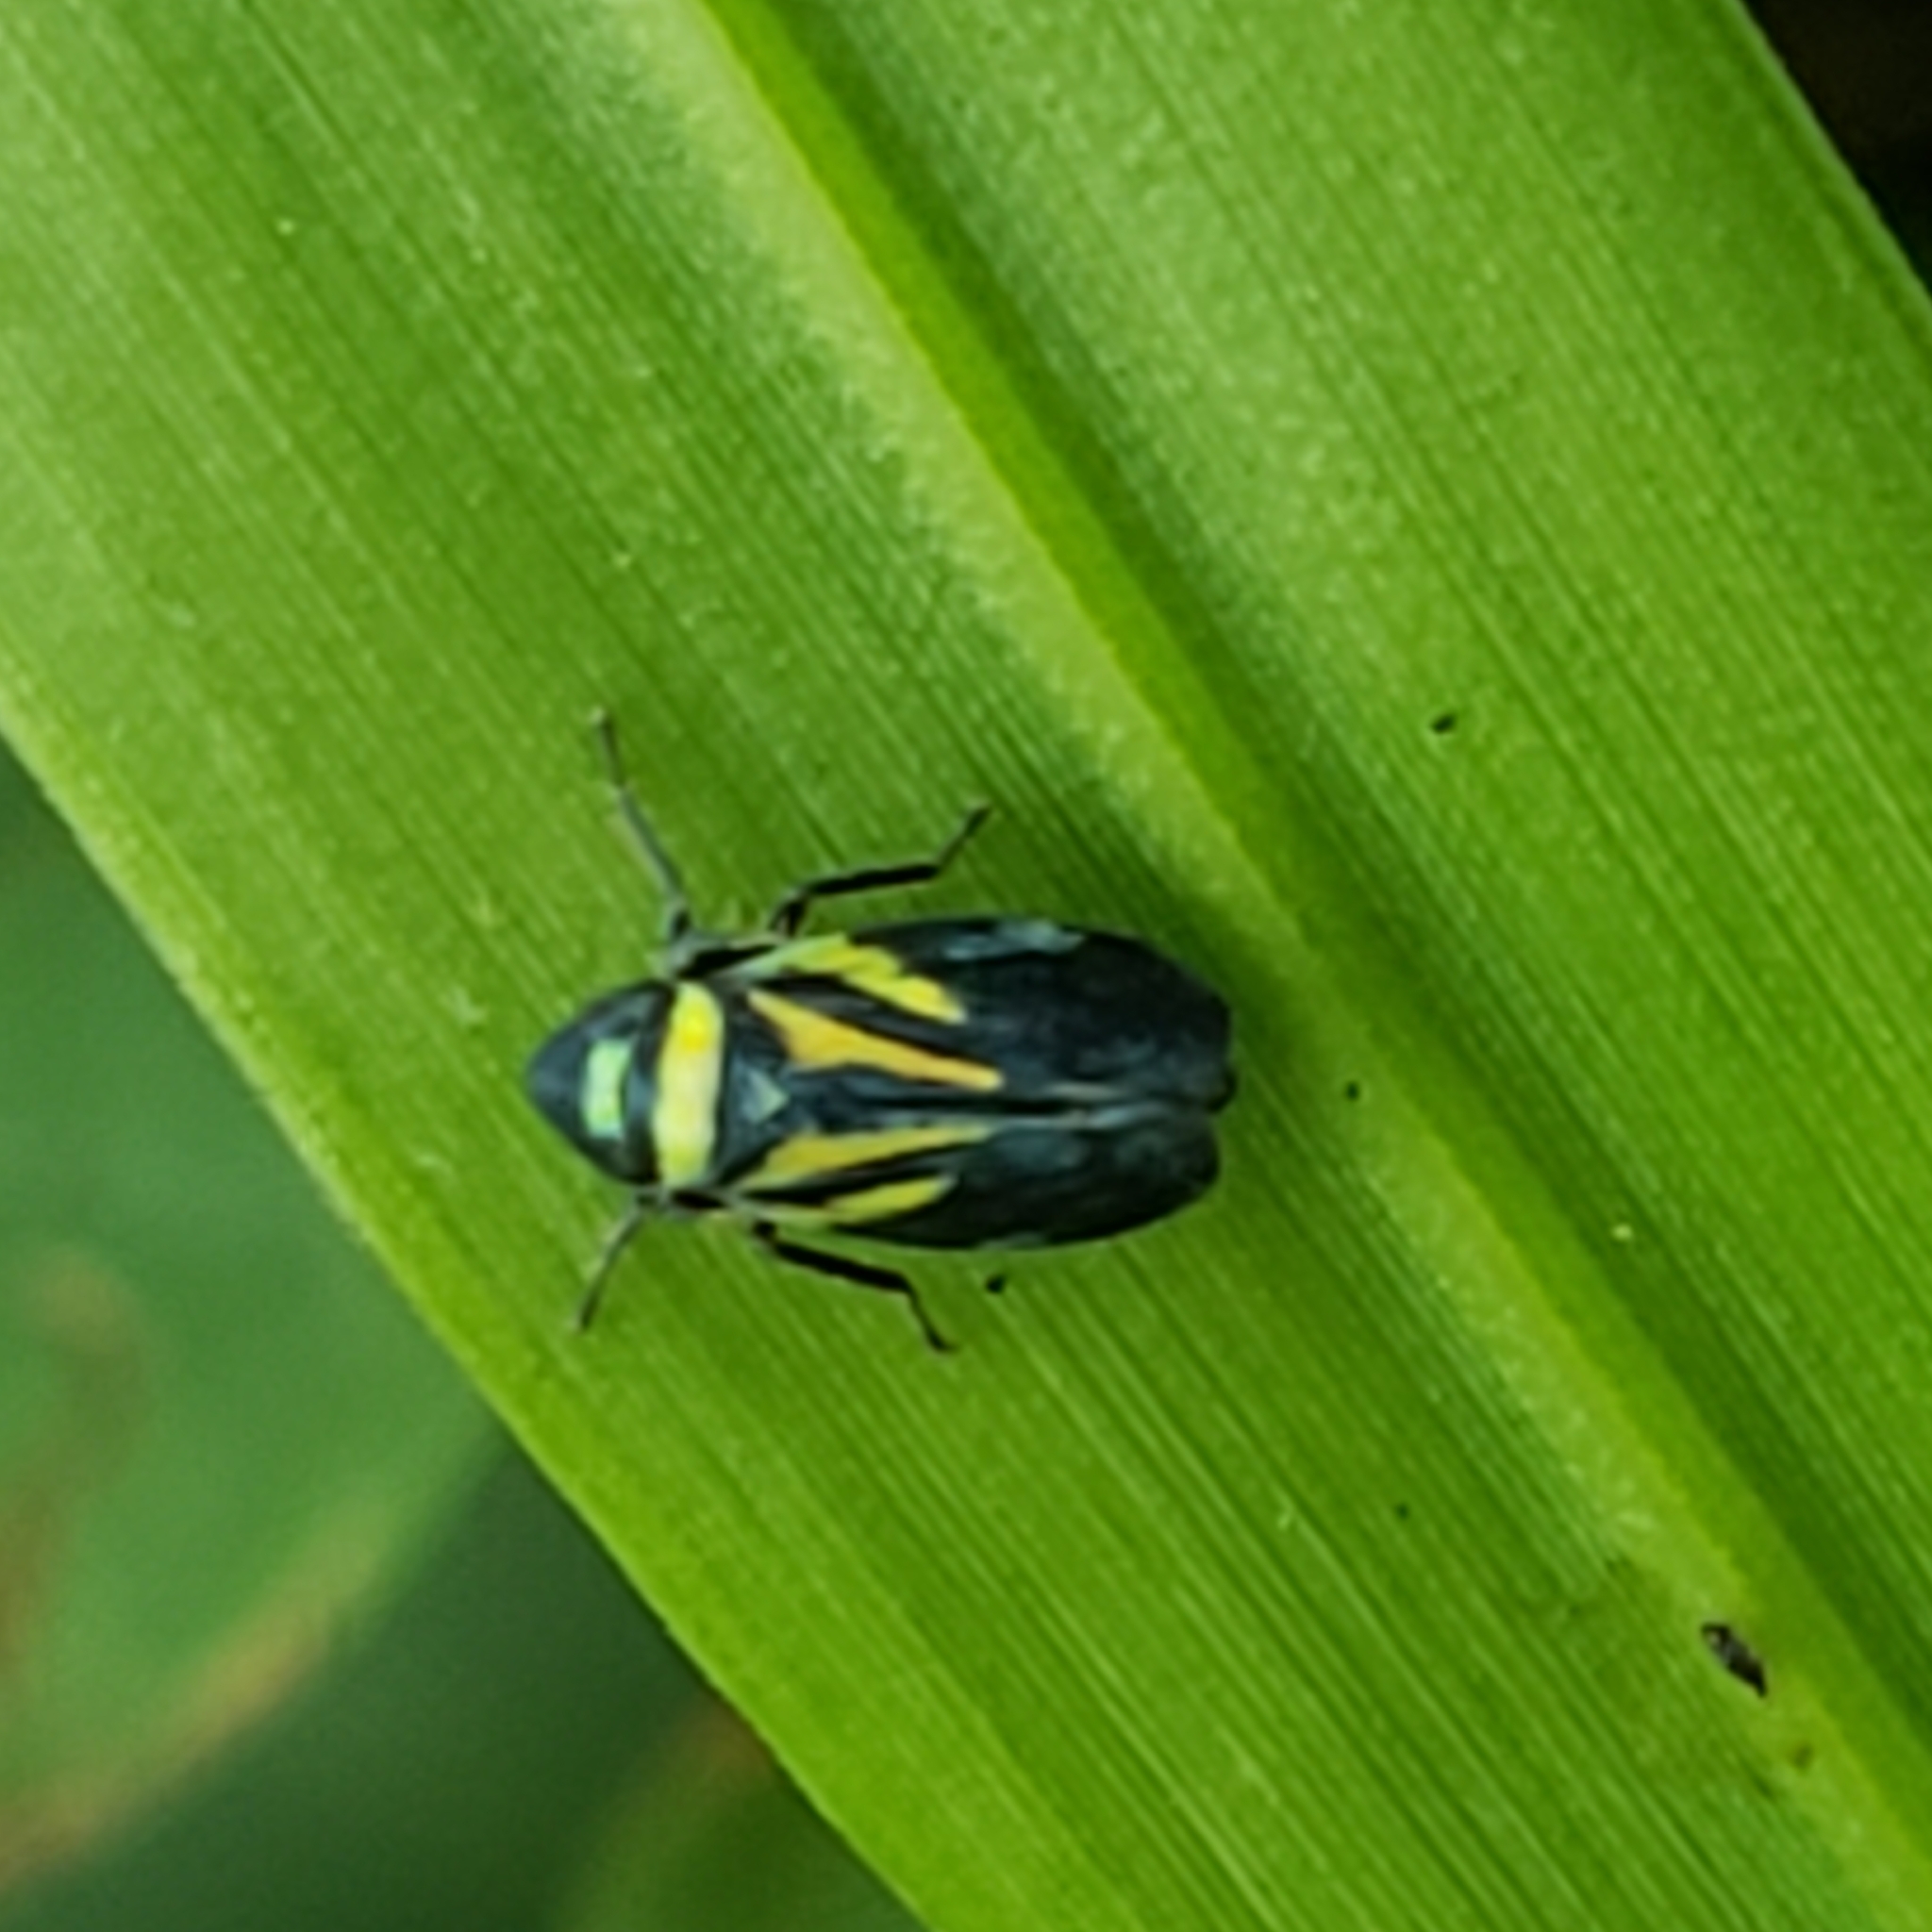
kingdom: Animalia
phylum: Arthropoda
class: Insecta
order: Hemiptera
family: Cicadellidae
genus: Stirellus
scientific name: Stirellus bicolor
